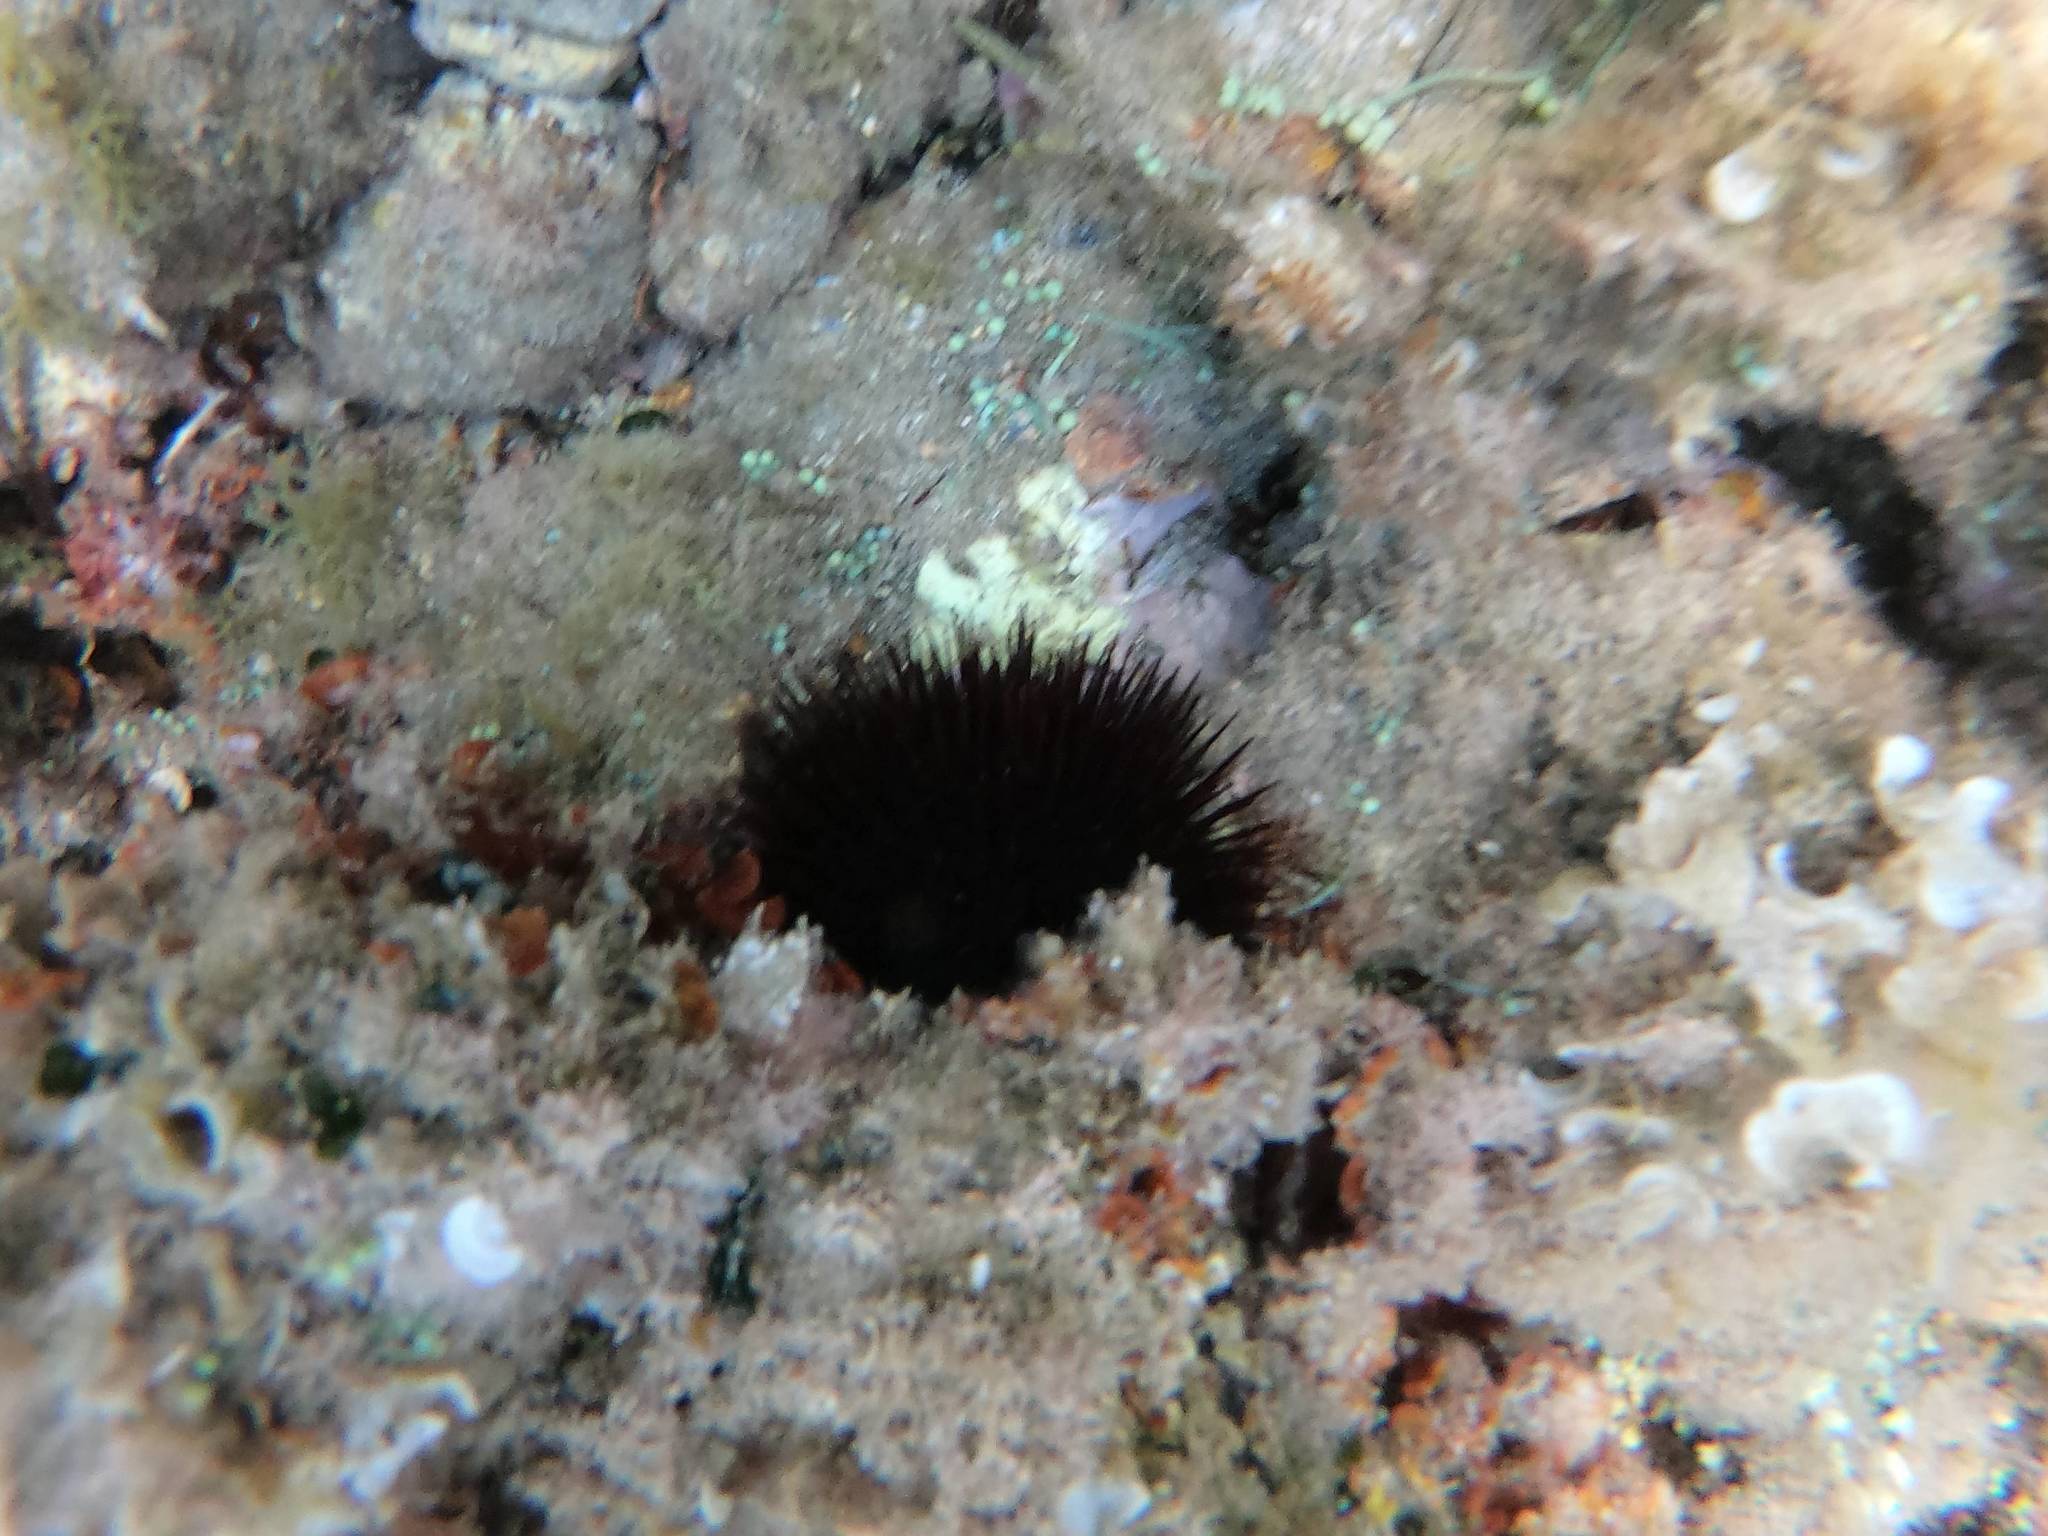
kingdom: Animalia
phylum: Echinodermata
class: Echinoidea
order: Arbacioida
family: Arbaciidae
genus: Arbacia
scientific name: Arbacia lixula
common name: Black sea urchin
